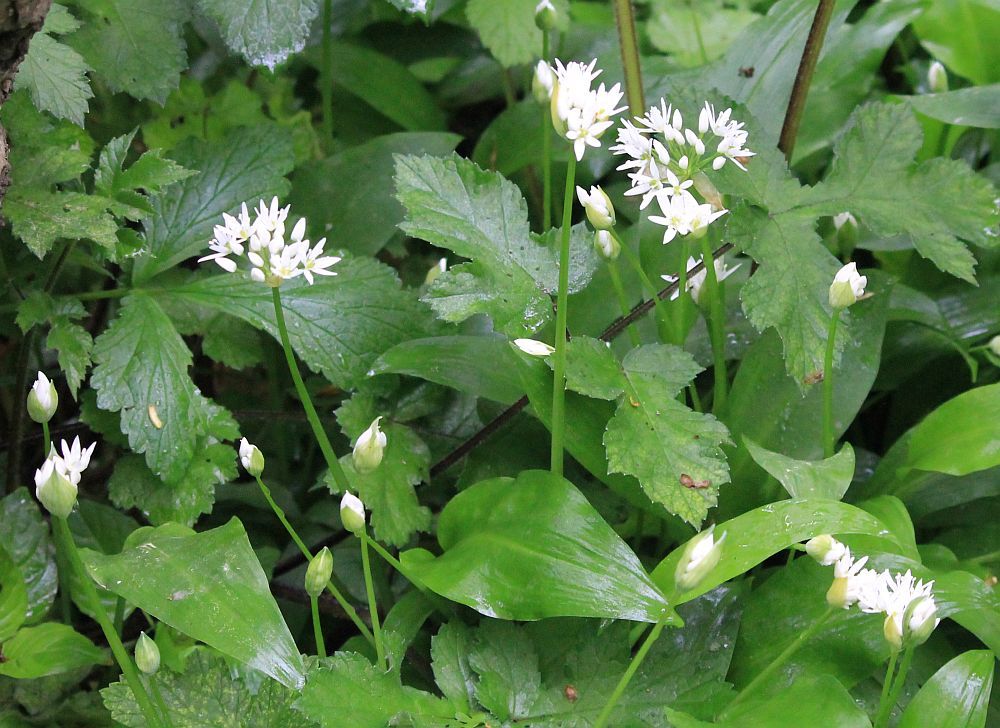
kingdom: Plantae
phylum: Tracheophyta
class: Liliopsida
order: Asparagales
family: Amaryllidaceae
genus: Allium
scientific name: Allium ursinum
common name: Ramsons
